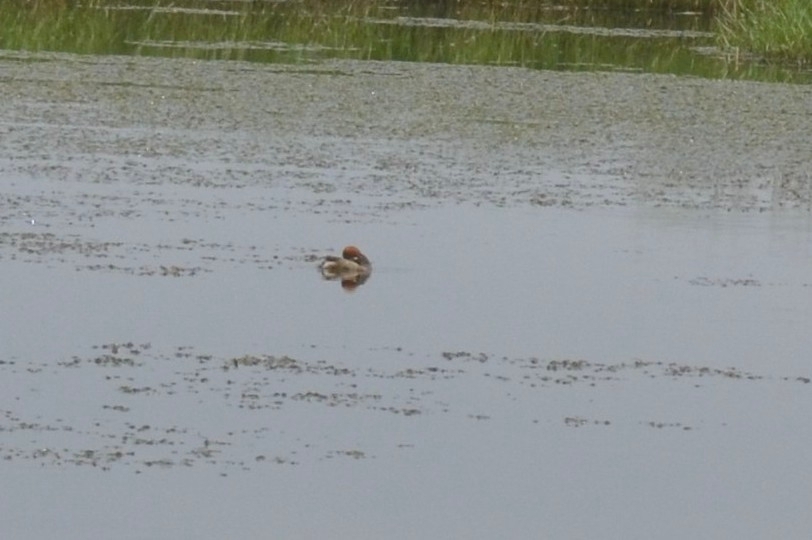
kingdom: Animalia
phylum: Chordata
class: Aves
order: Podicipediformes
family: Podicipedidae
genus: Tachybaptus
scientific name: Tachybaptus ruficollis
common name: Little grebe
